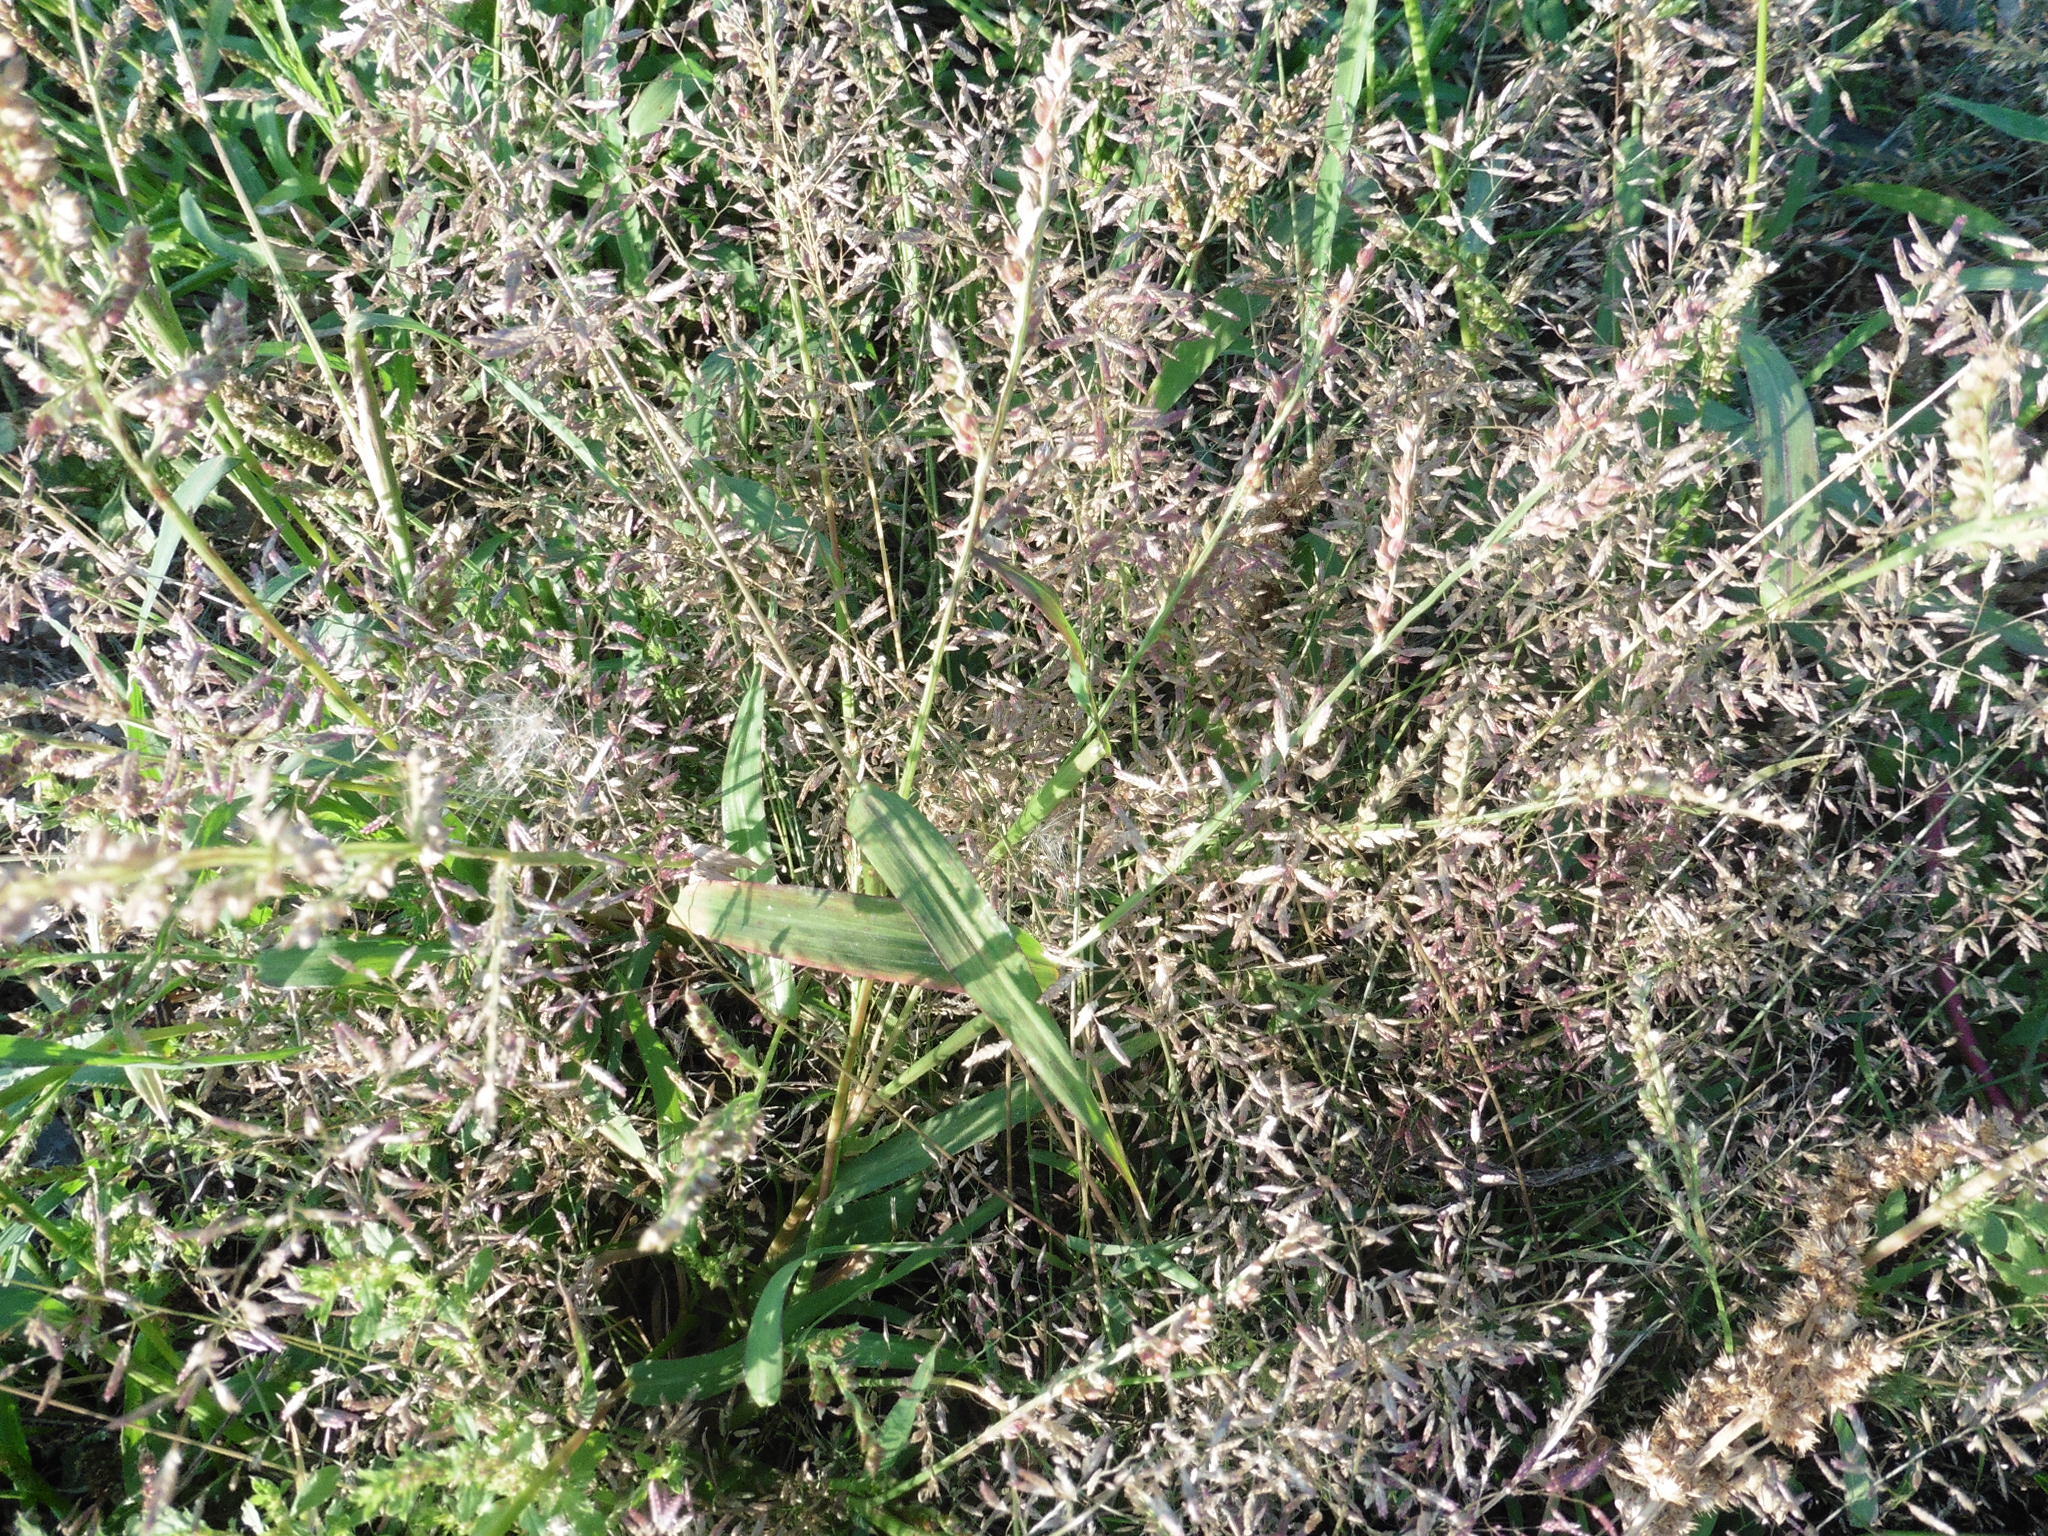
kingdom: Plantae
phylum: Tracheophyta
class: Liliopsida
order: Poales
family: Poaceae
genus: Eragrostis
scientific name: Eragrostis minor
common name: Small love-grass
